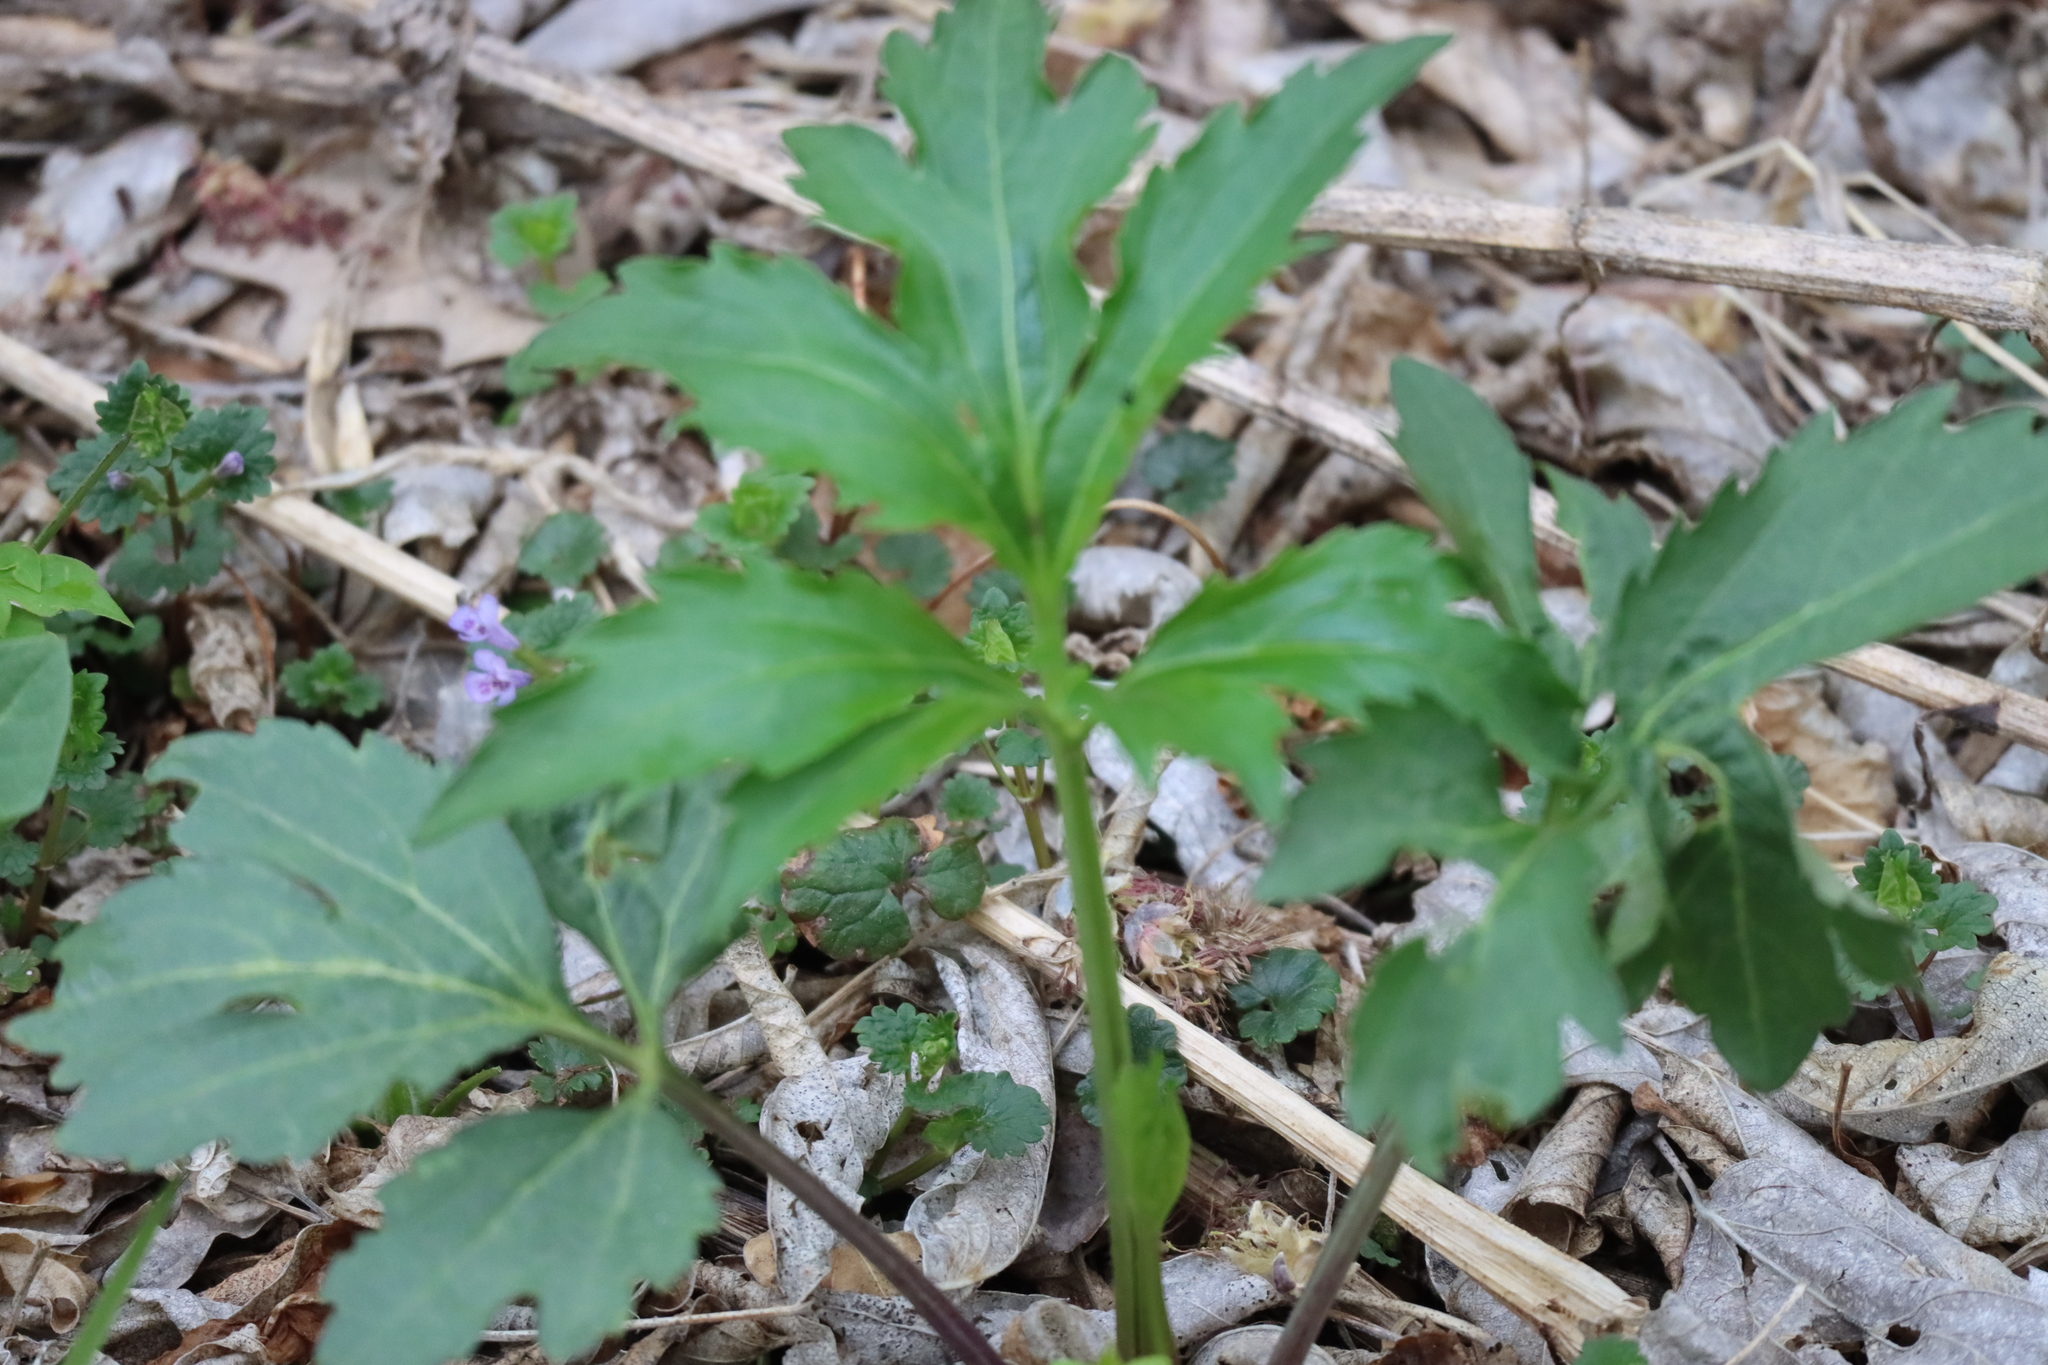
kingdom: Plantae
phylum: Tracheophyta
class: Magnoliopsida
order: Asterales
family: Asteraceae
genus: Rudbeckia
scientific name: Rudbeckia laciniata
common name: Coneflower
